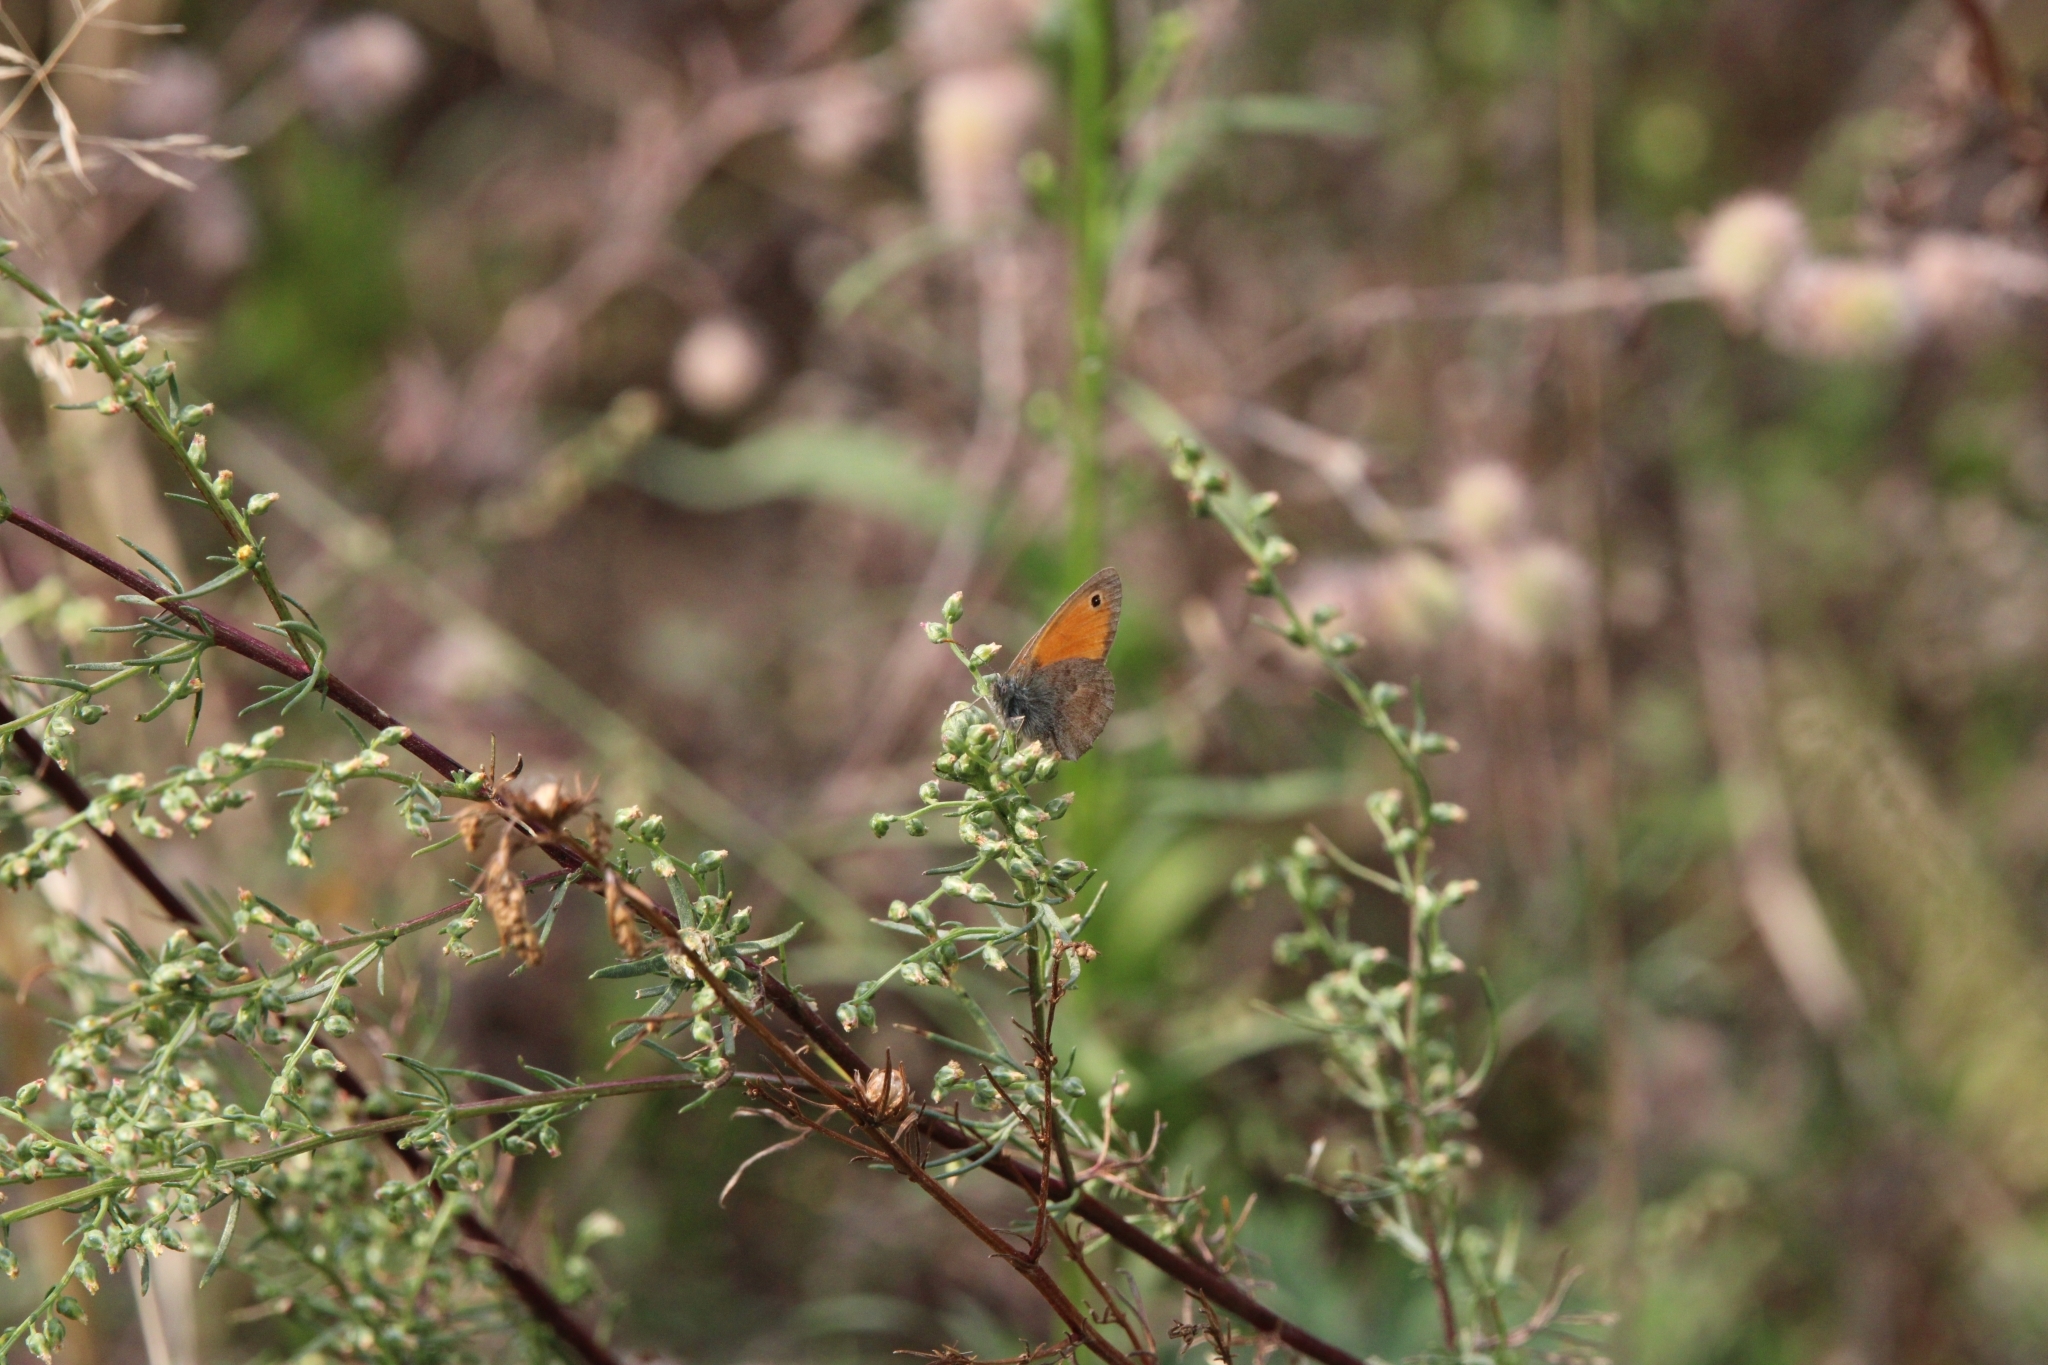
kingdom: Animalia
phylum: Arthropoda
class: Insecta
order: Lepidoptera
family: Nymphalidae
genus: Coenonympha
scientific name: Coenonympha pamphilus
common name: Small heath
